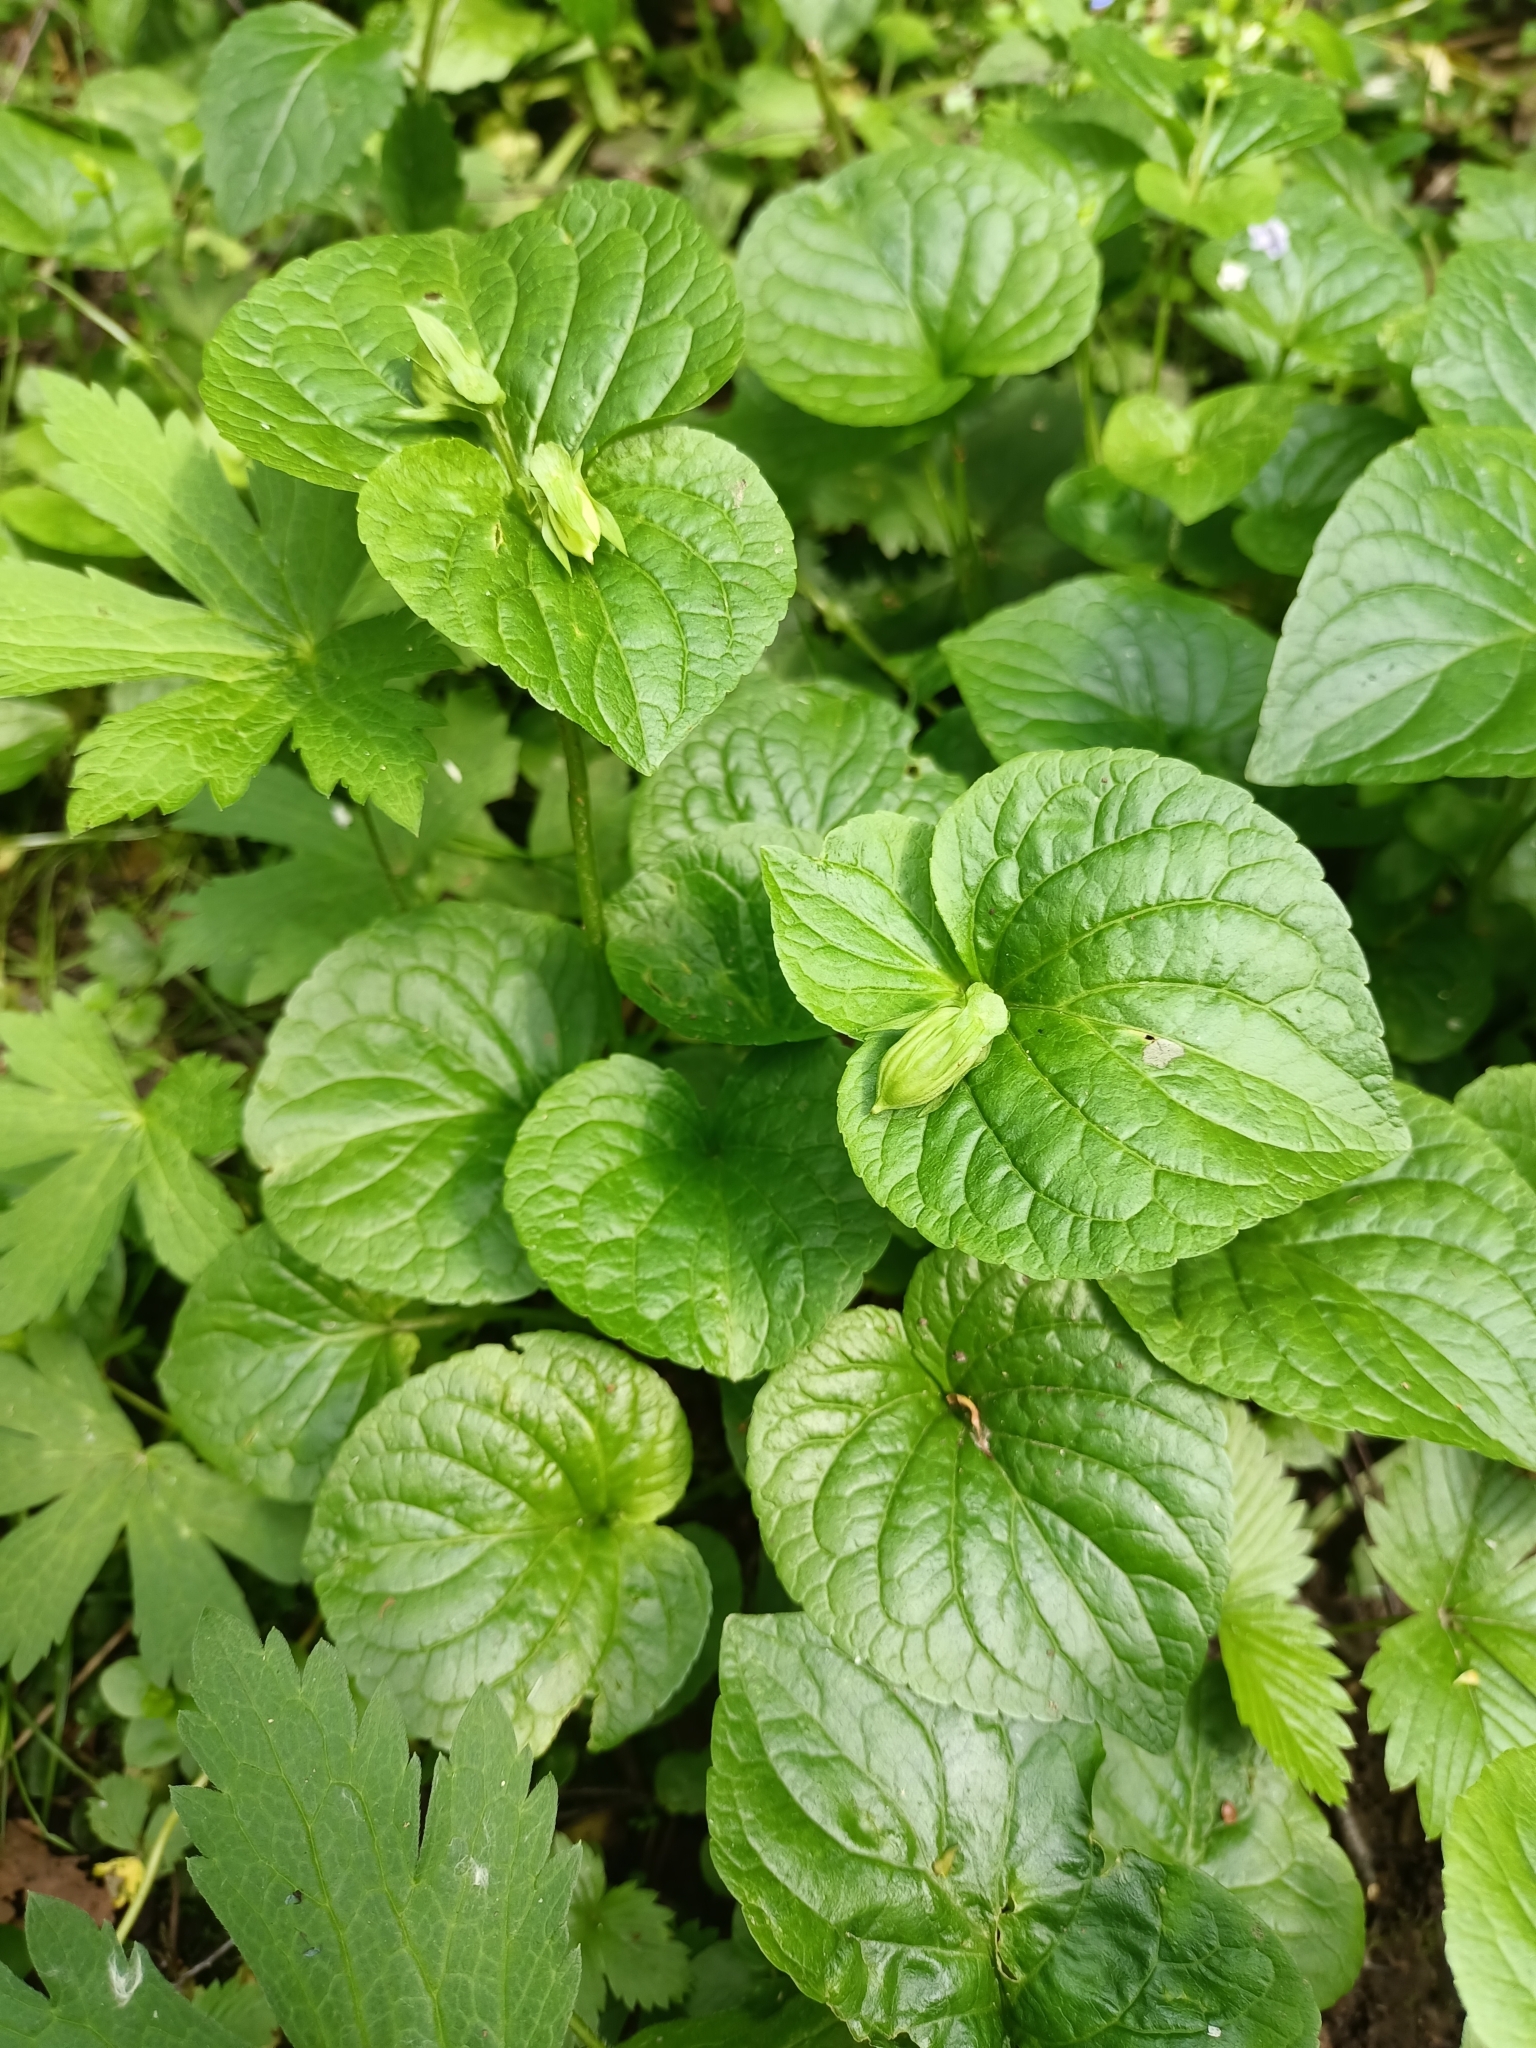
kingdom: Plantae
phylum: Tracheophyta
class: Magnoliopsida
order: Malpighiales
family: Violaceae
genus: Viola
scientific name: Viola mirabilis
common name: Wonder violet
